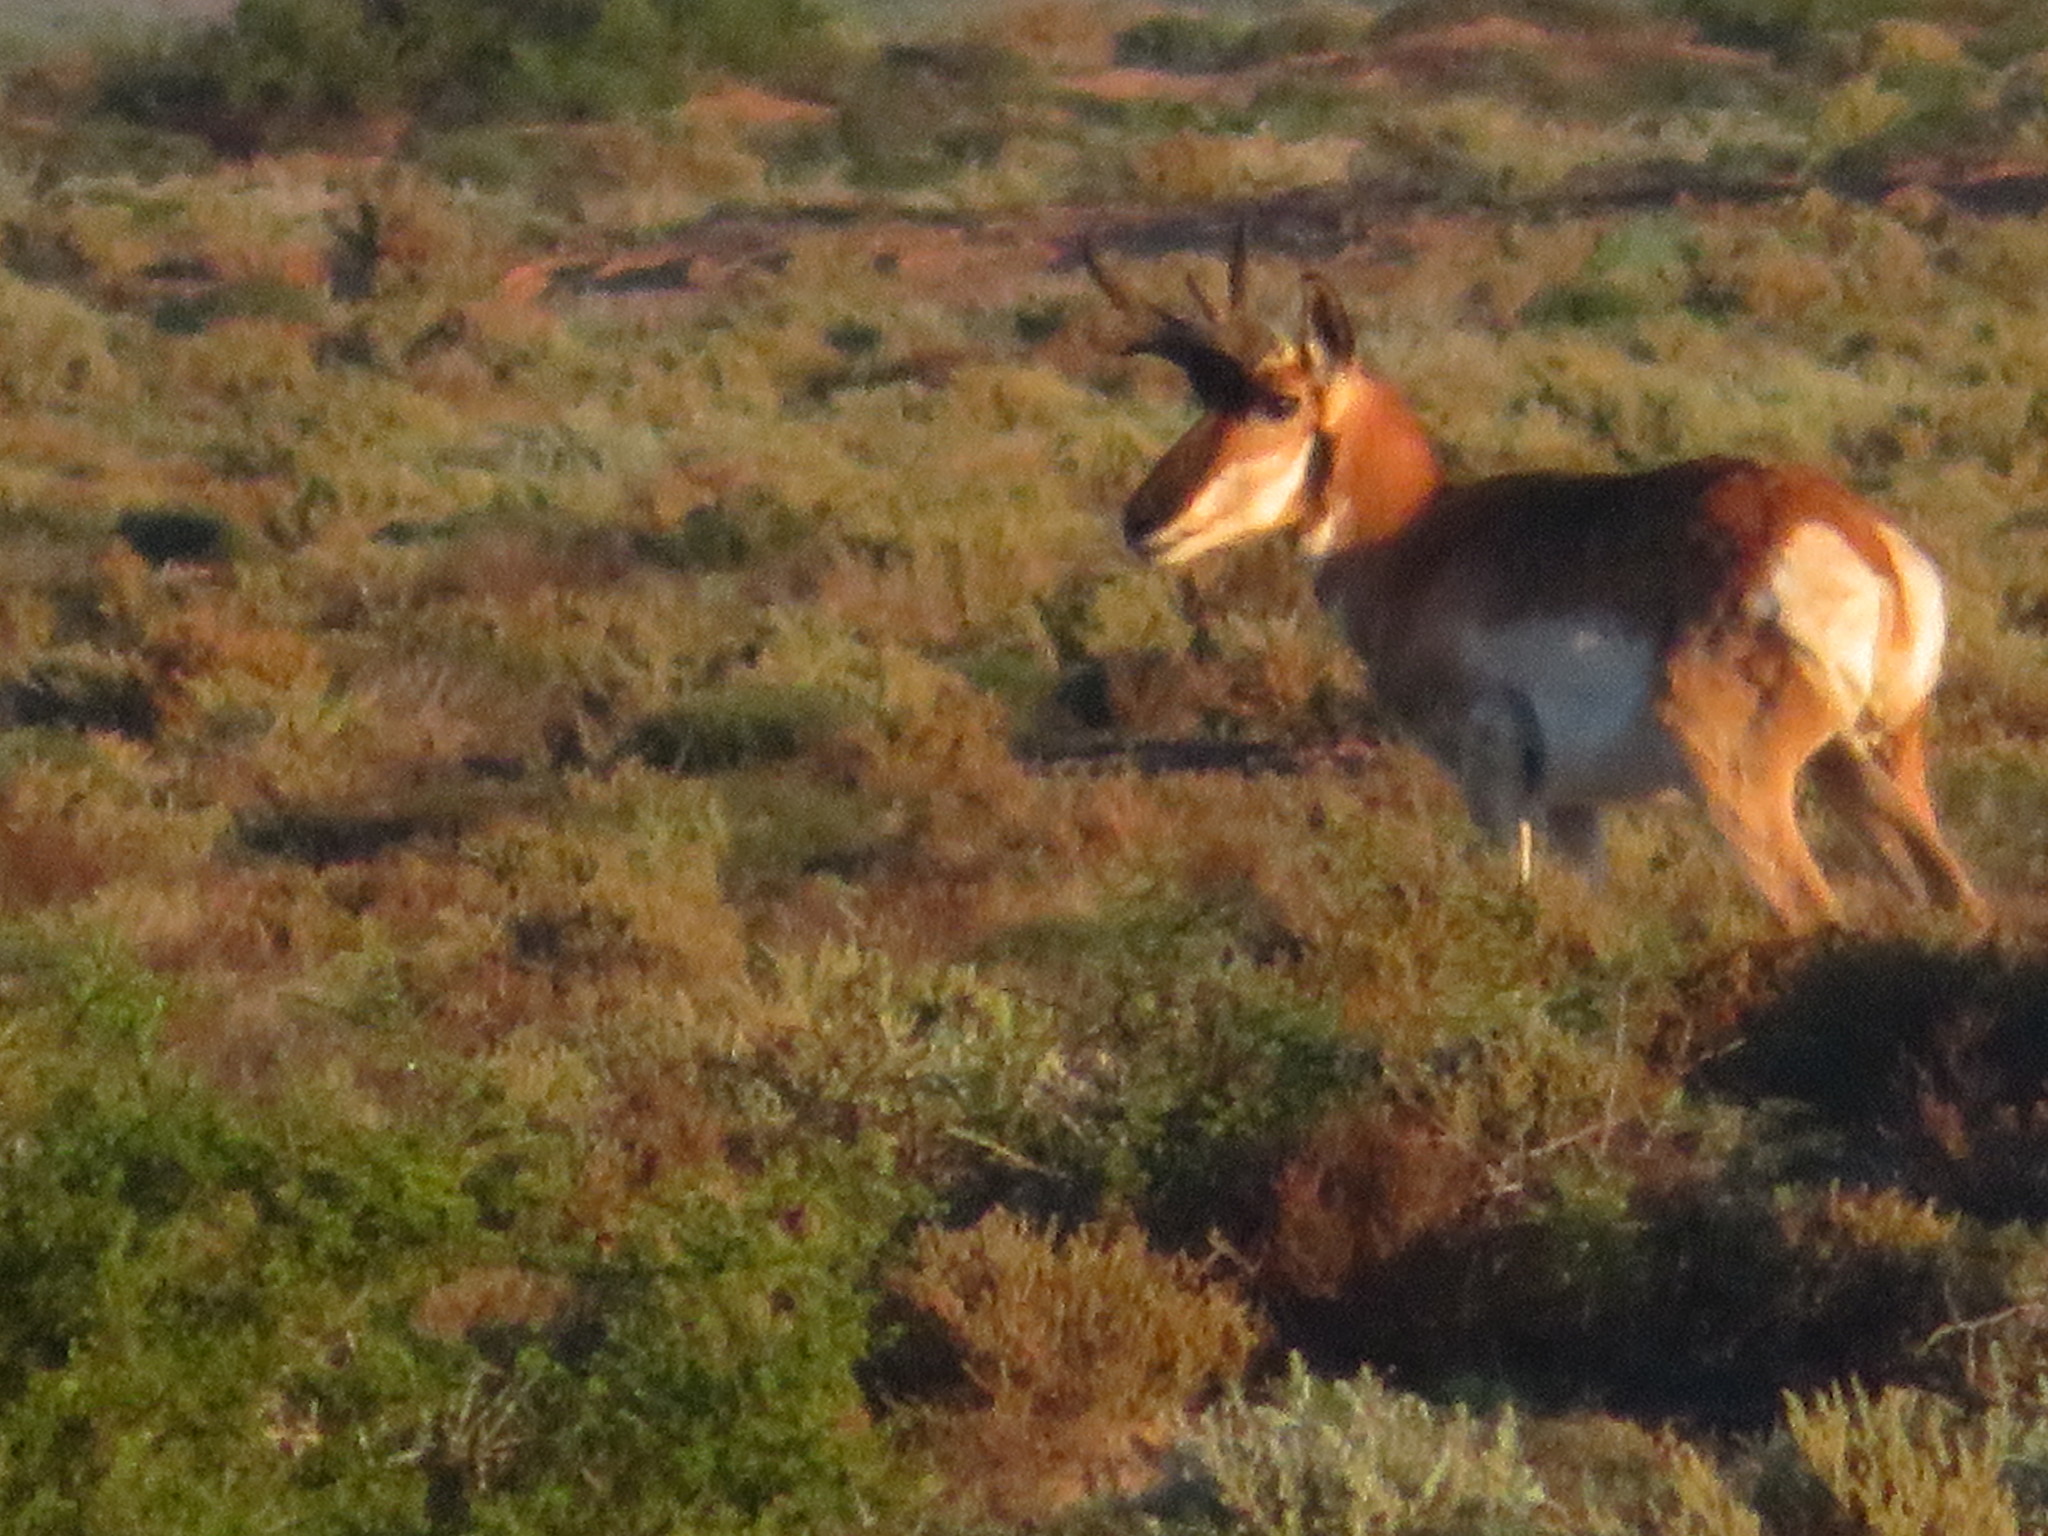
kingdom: Animalia
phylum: Chordata
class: Mammalia
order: Artiodactyla
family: Antilocapridae
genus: Antilocapra
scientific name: Antilocapra americana
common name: Pronghorn
